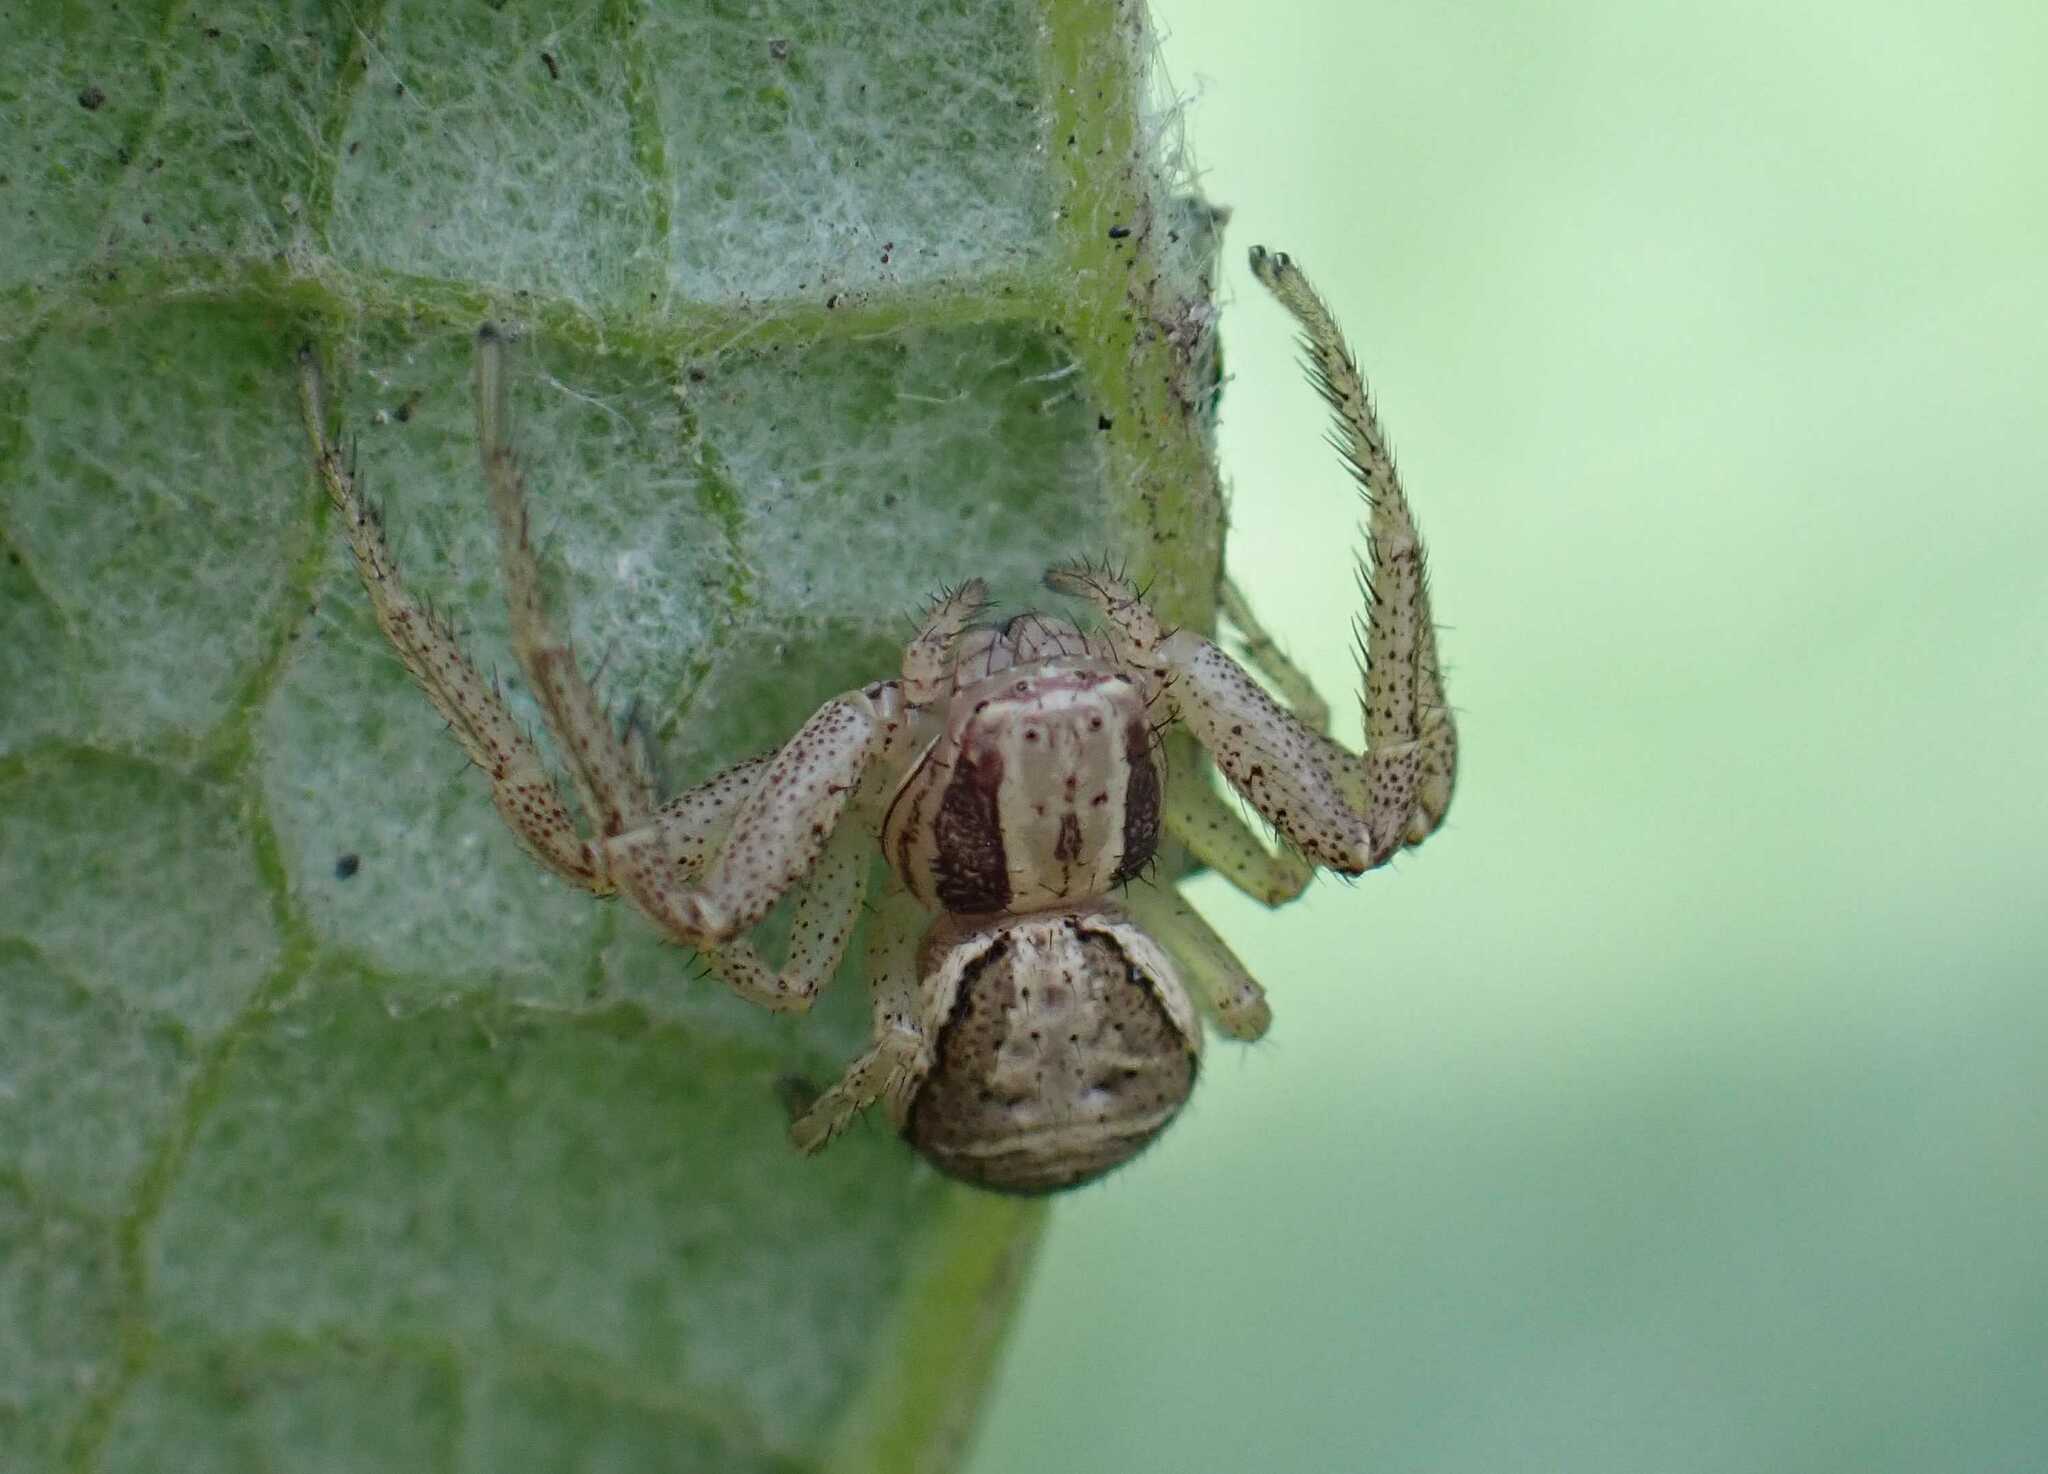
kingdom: Animalia
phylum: Arthropoda
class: Arachnida
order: Araneae
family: Thomisidae
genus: Xysticus
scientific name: Xysticus ulmi
